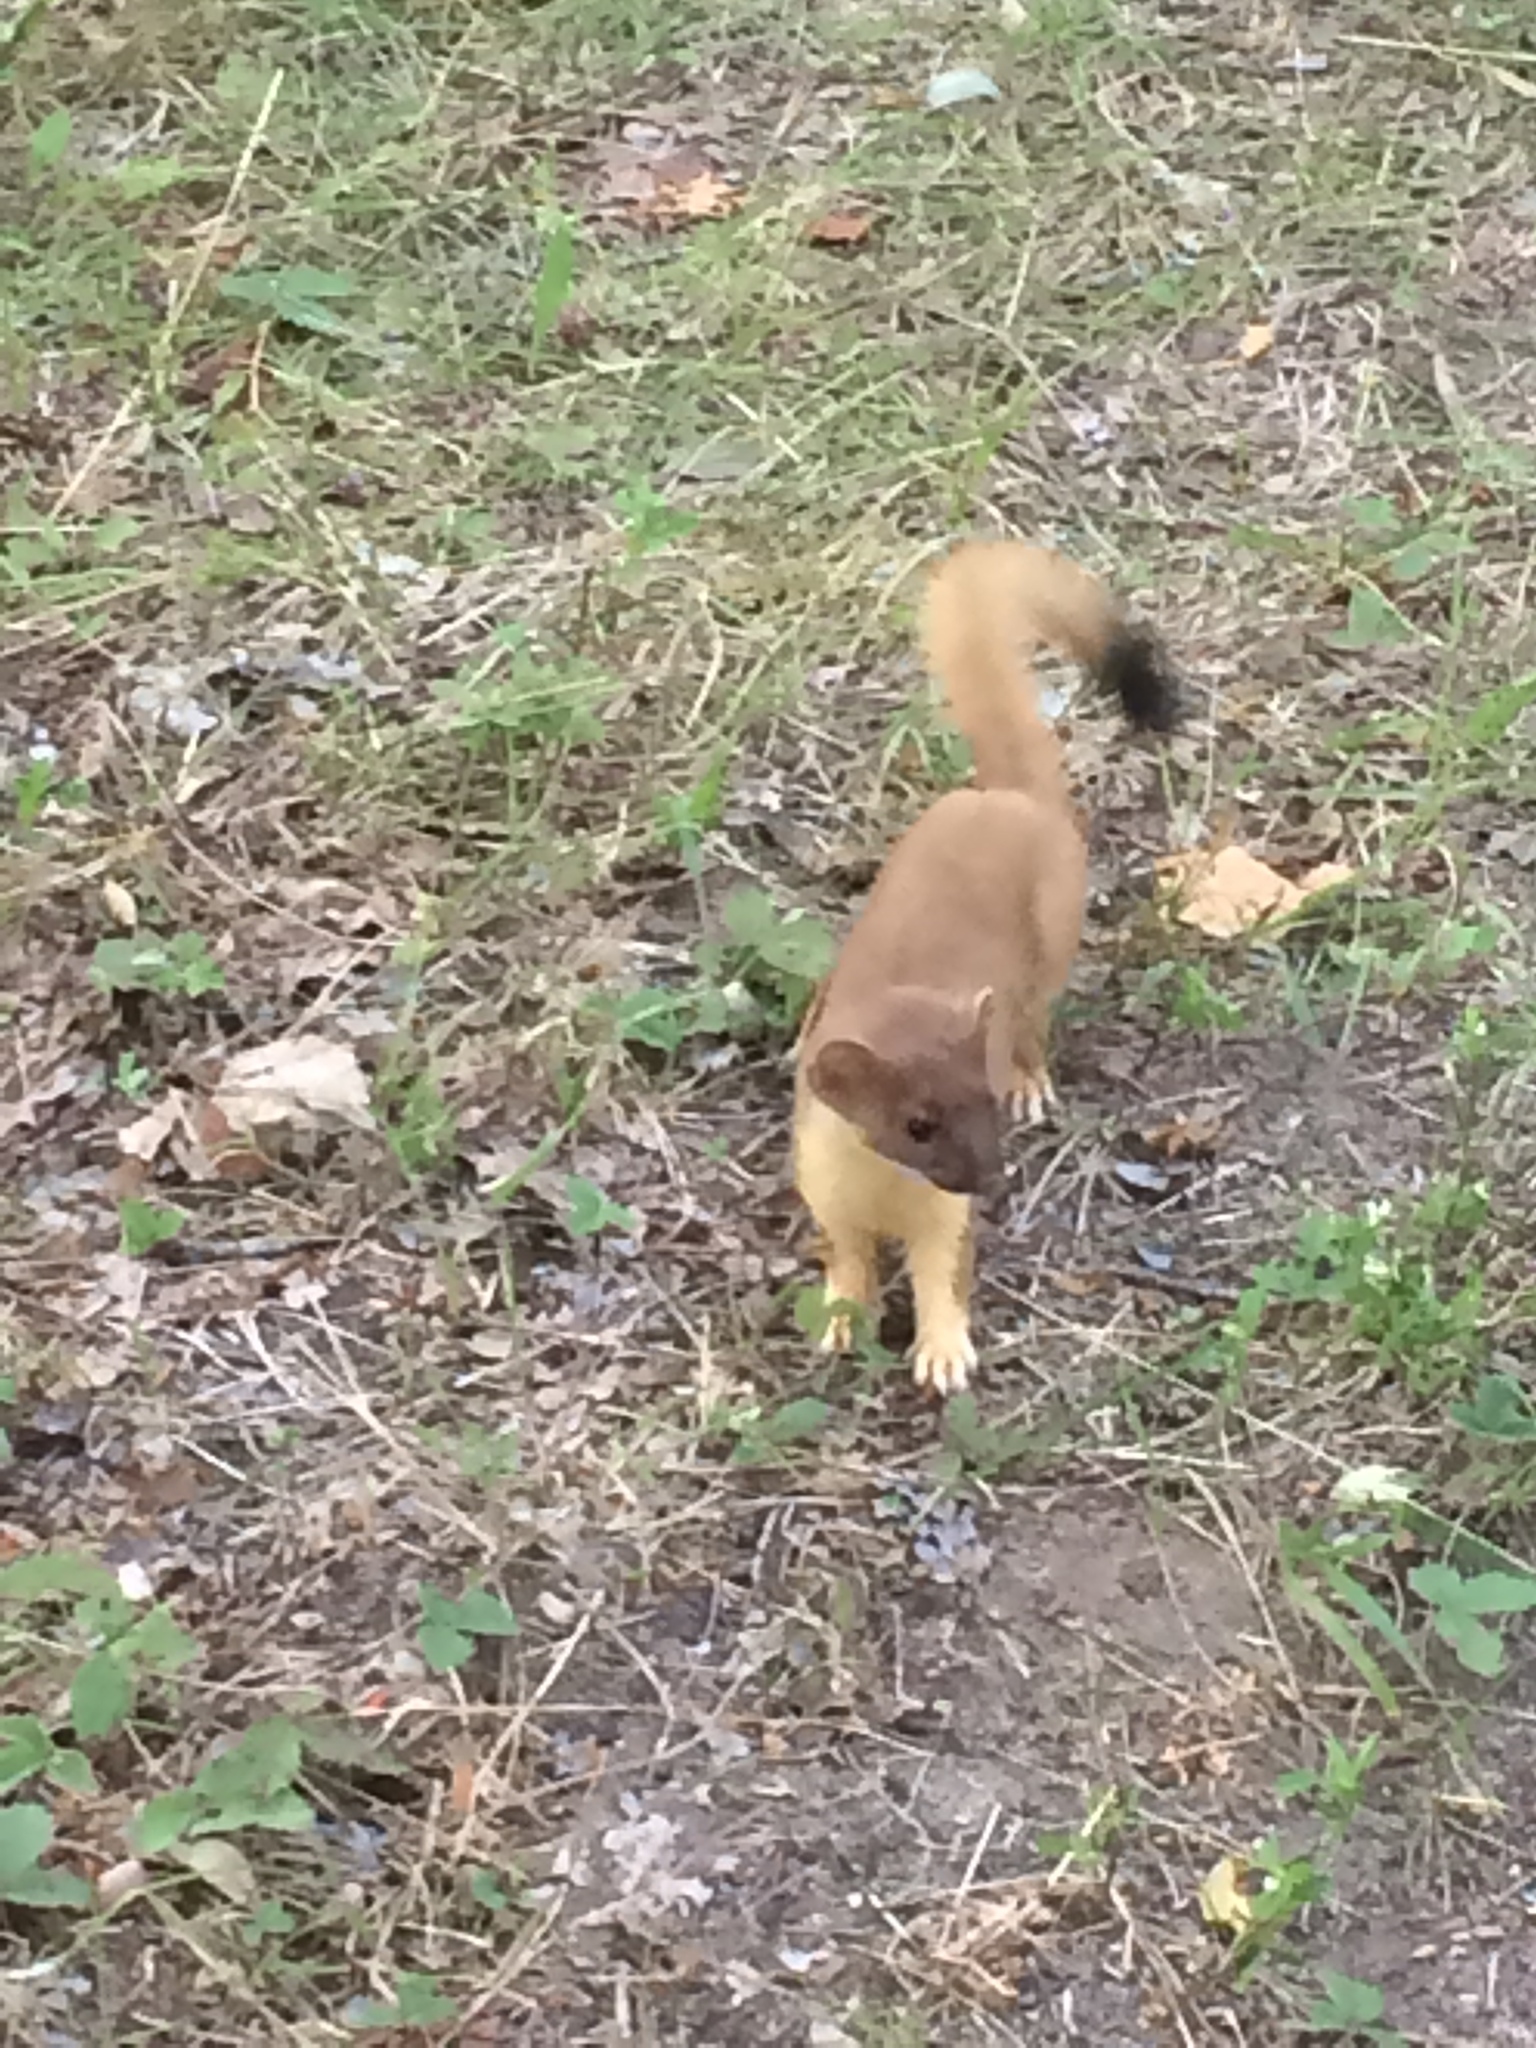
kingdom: Animalia
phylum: Chordata
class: Mammalia
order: Carnivora
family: Mustelidae
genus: Mustela
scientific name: Mustela
